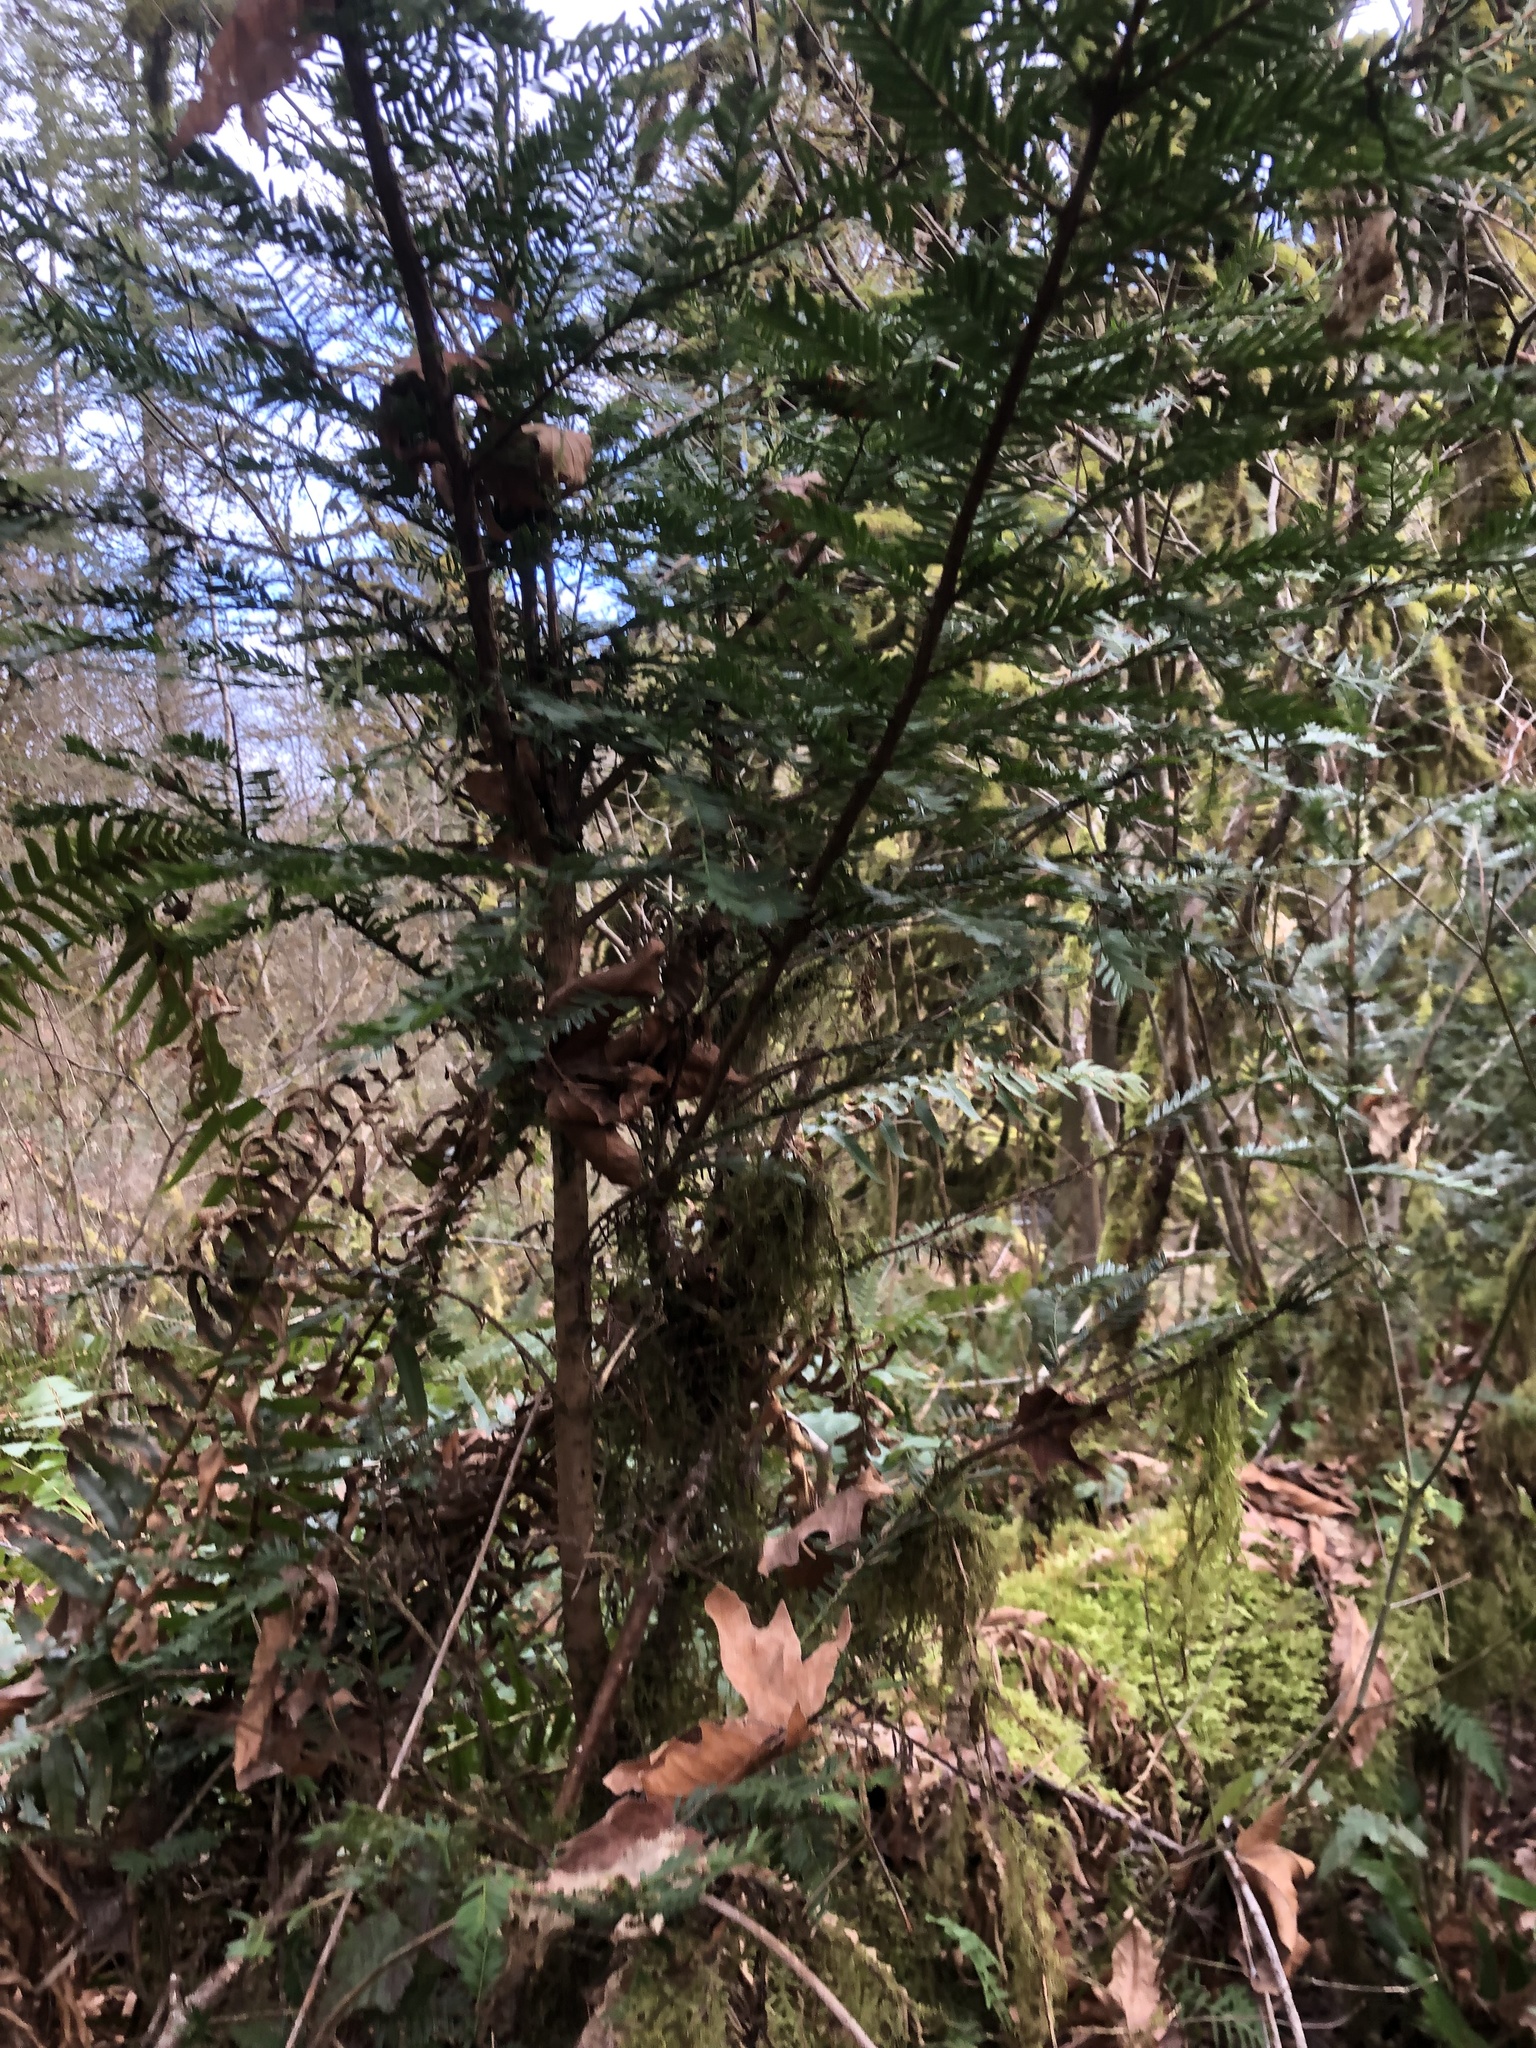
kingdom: Plantae
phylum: Tracheophyta
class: Pinopsida
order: Pinales
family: Taxaceae
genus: Taxus
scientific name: Taxus brevifolia
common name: Pacific yew
